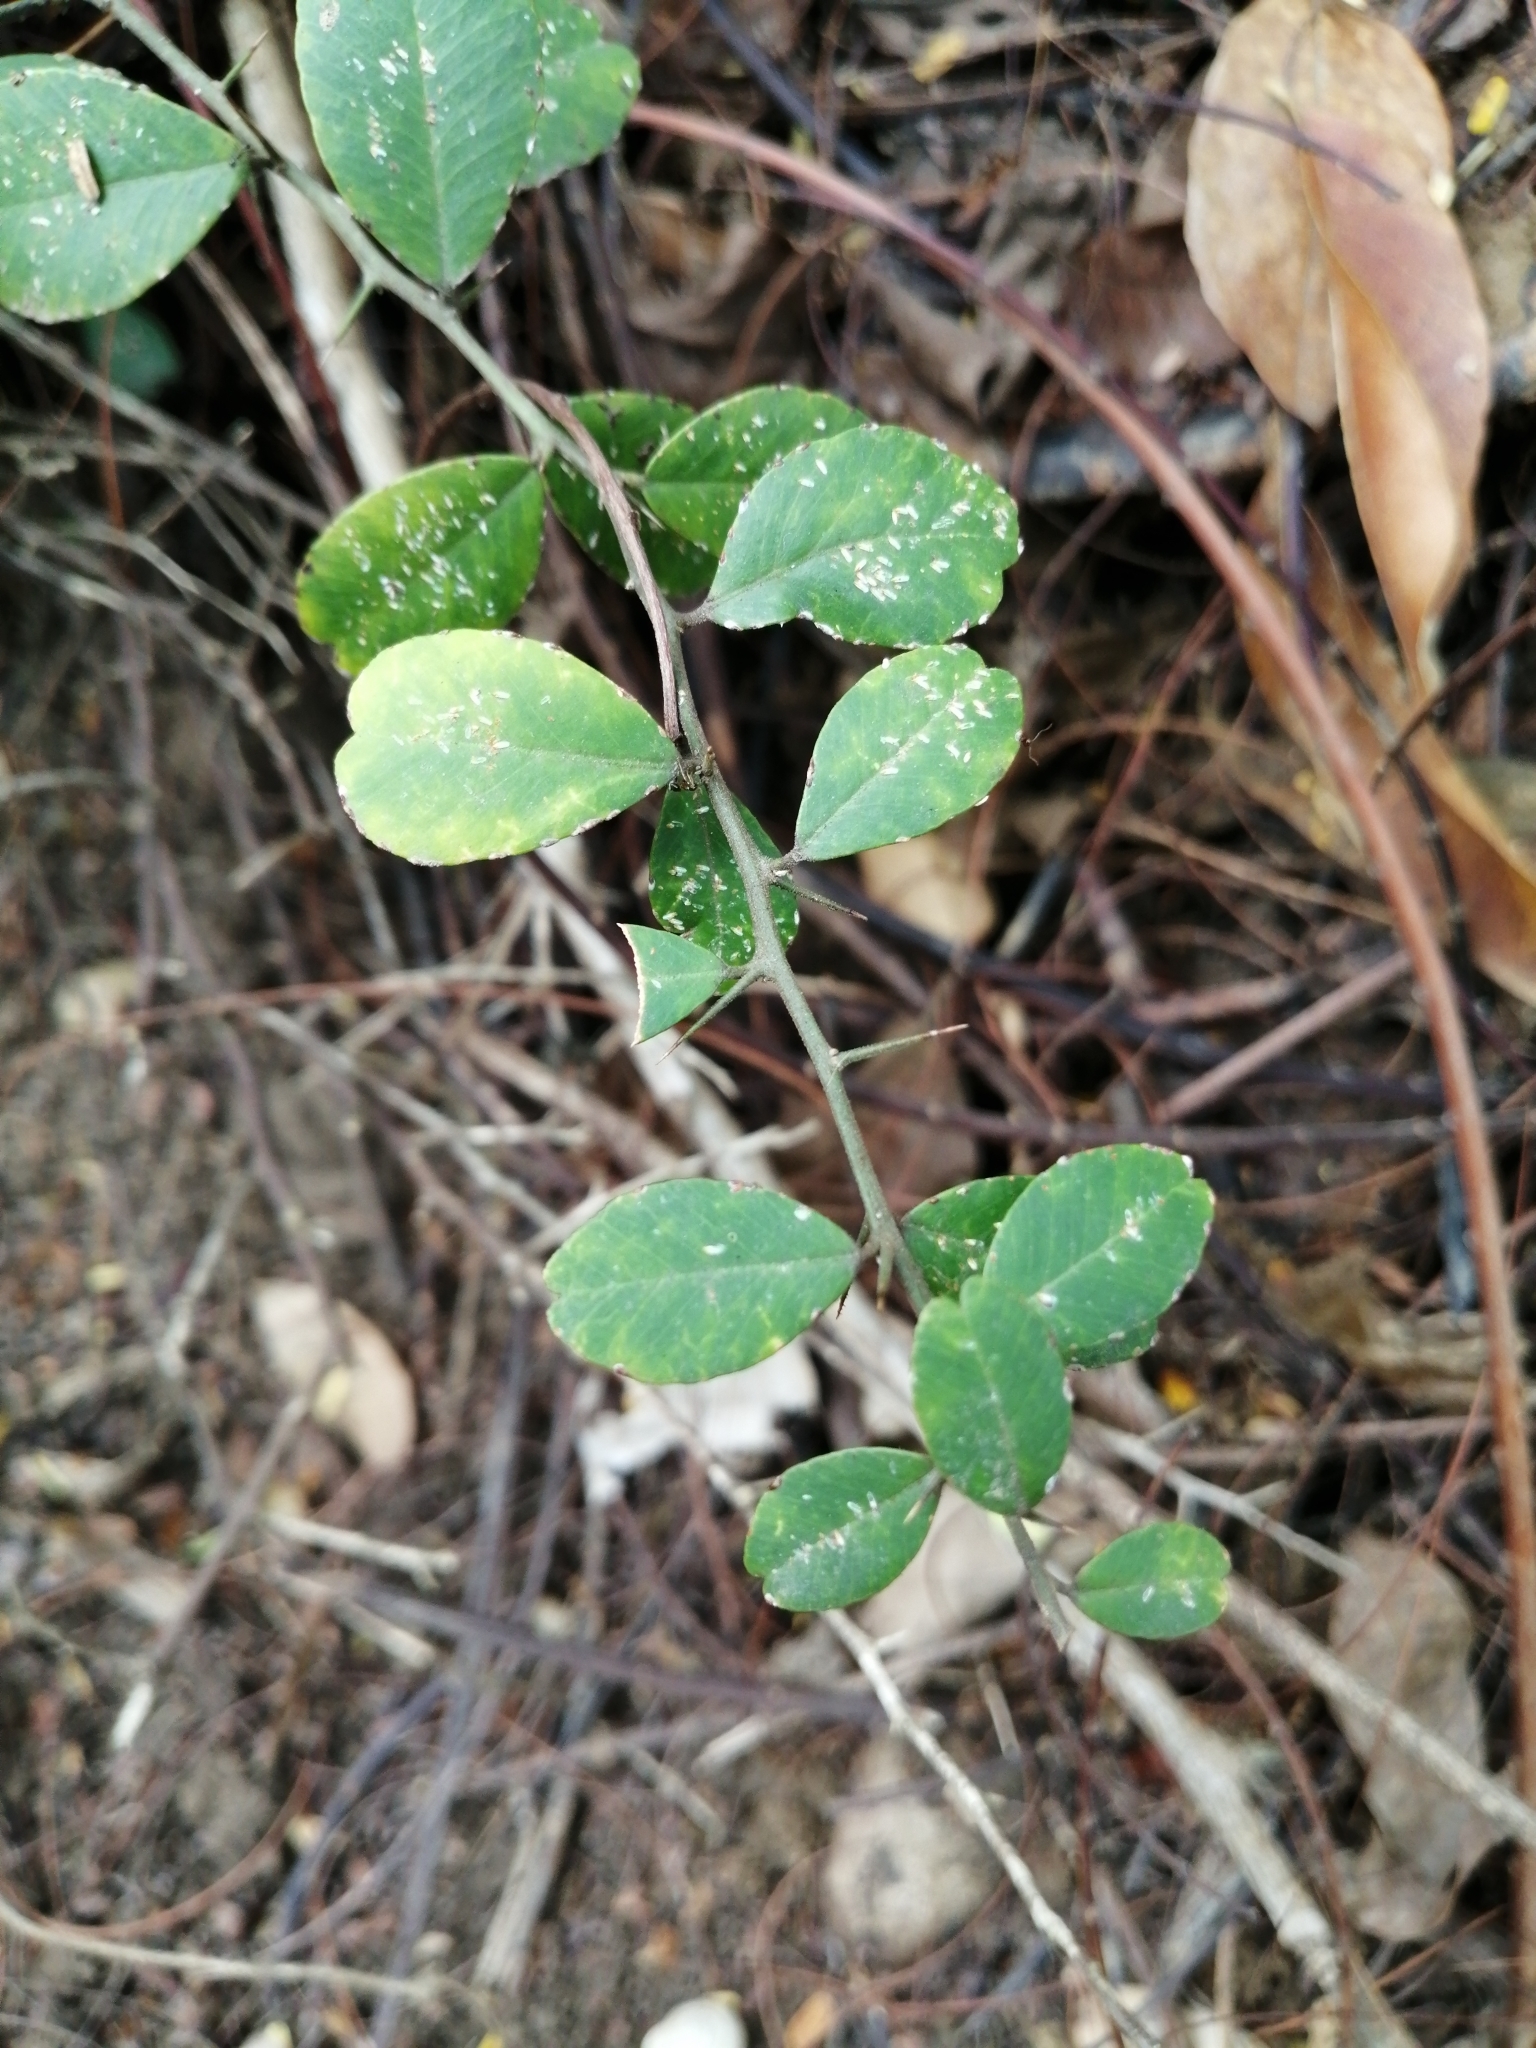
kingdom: Plantae
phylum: Tracheophyta
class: Magnoliopsida
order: Sapindales
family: Rutaceae
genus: Atalantia
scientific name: Atalantia buxifolia
